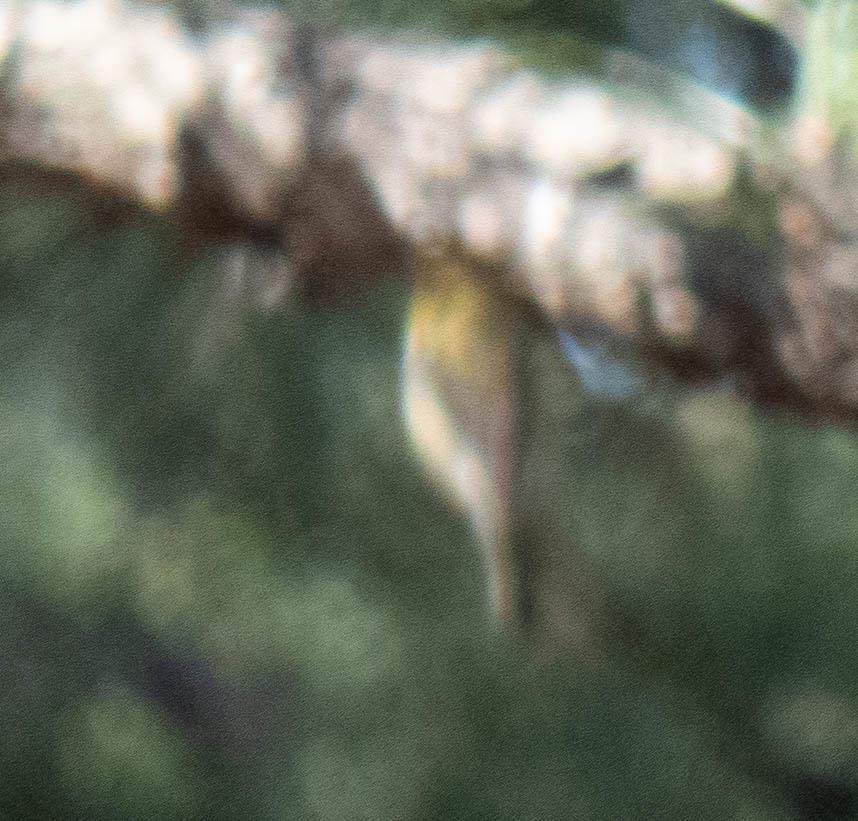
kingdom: Animalia
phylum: Chordata
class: Aves
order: Passeriformes
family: Parulidae
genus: Setophaga
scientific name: Setophaga pinus
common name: Pine warbler
